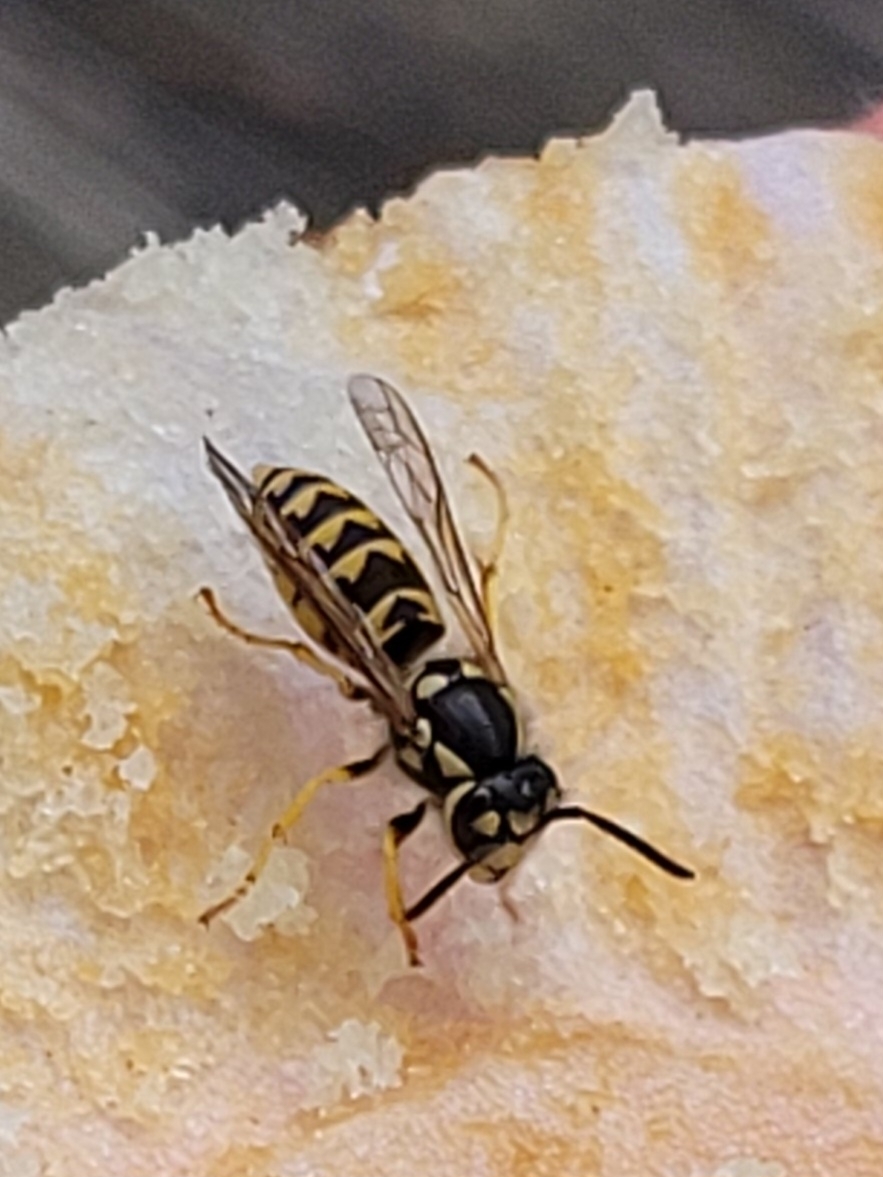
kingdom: Animalia
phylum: Arthropoda
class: Insecta
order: Hymenoptera
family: Vespidae
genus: Vespula
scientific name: Vespula germanica
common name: German wasp
